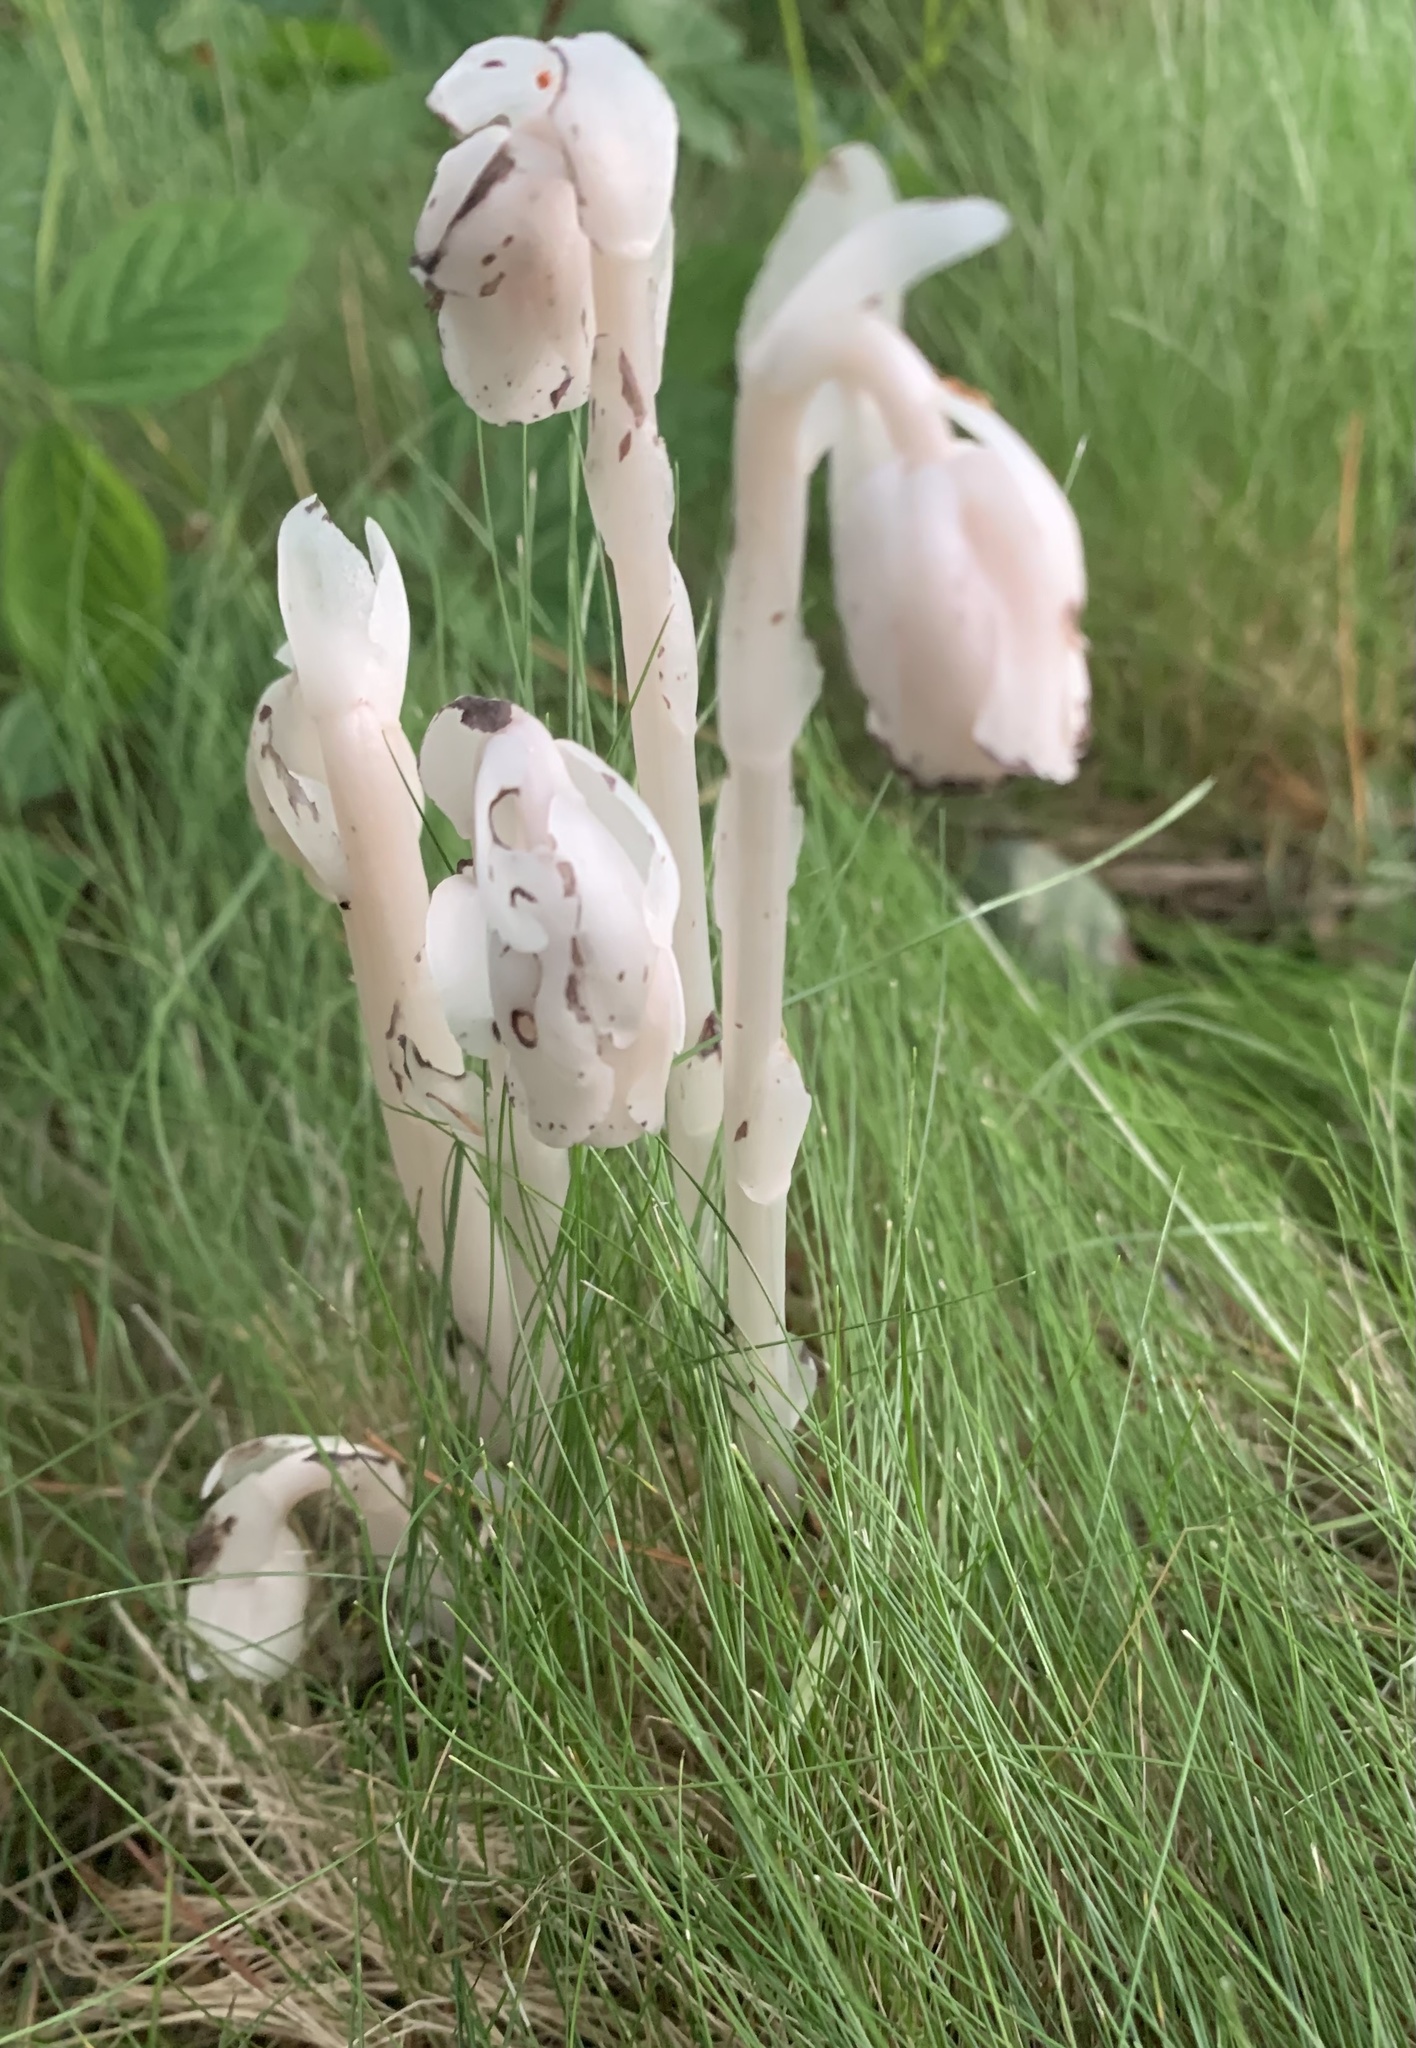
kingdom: Plantae
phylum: Tracheophyta
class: Magnoliopsida
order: Ericales
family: Ericaceae
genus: Monotropa
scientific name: Monotropa uniflora
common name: Convulsion root
